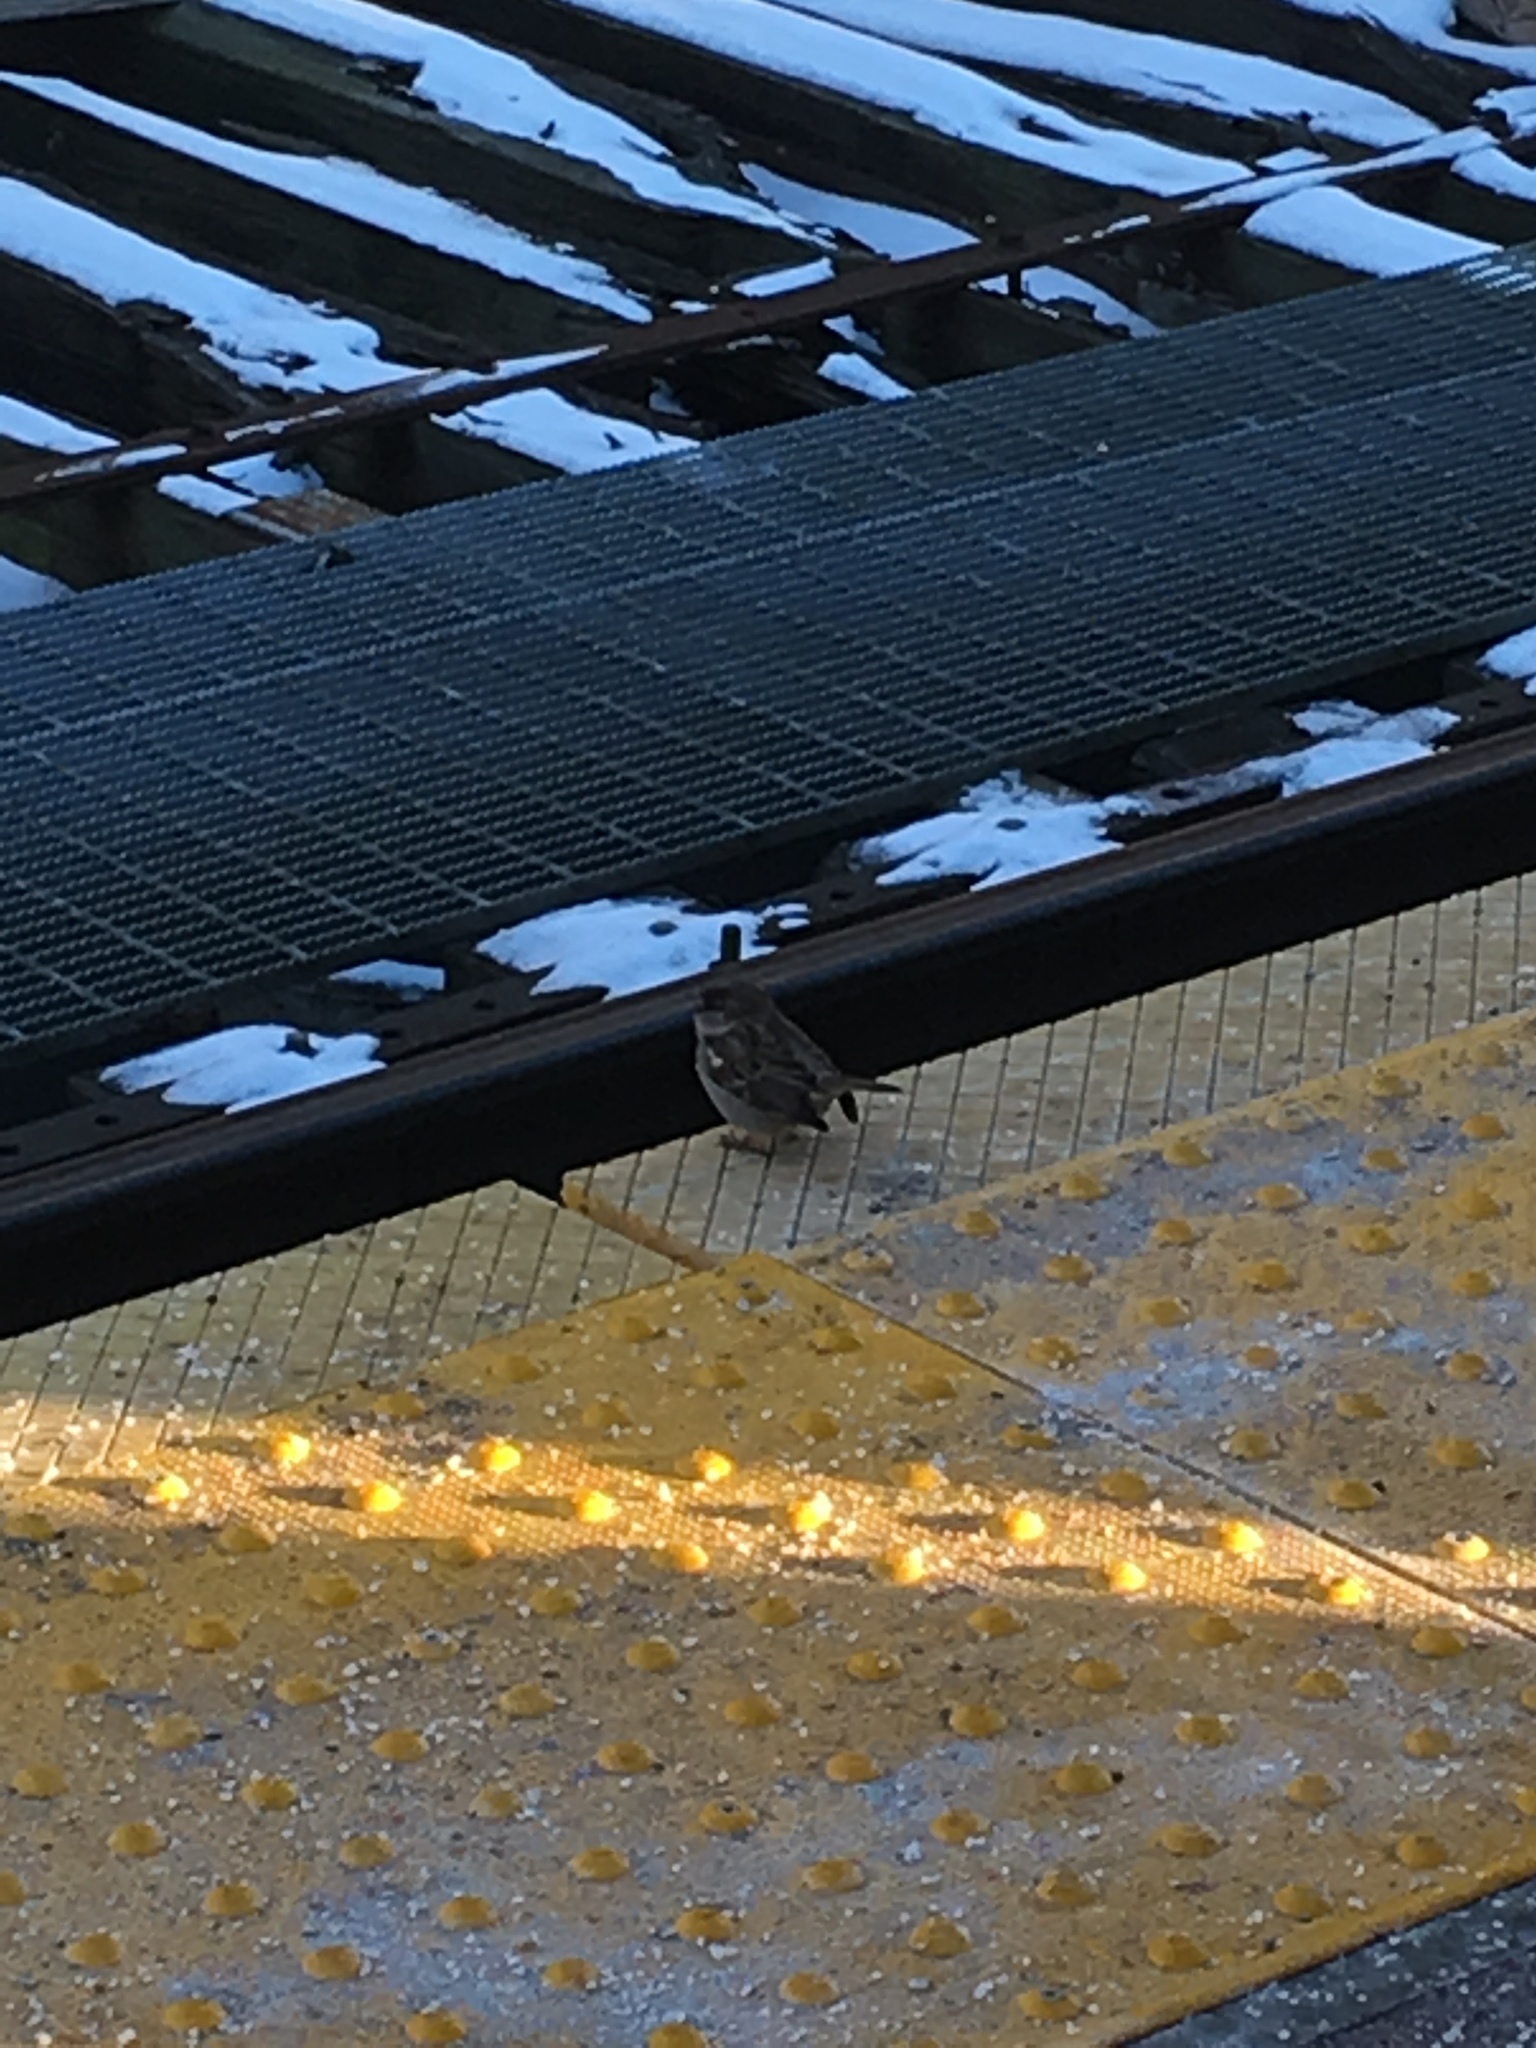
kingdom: Animalia
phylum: Chordata
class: Aves
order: Passeriformes
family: Passeridae
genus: Passer
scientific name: Passer domesticus
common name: House sparrow
